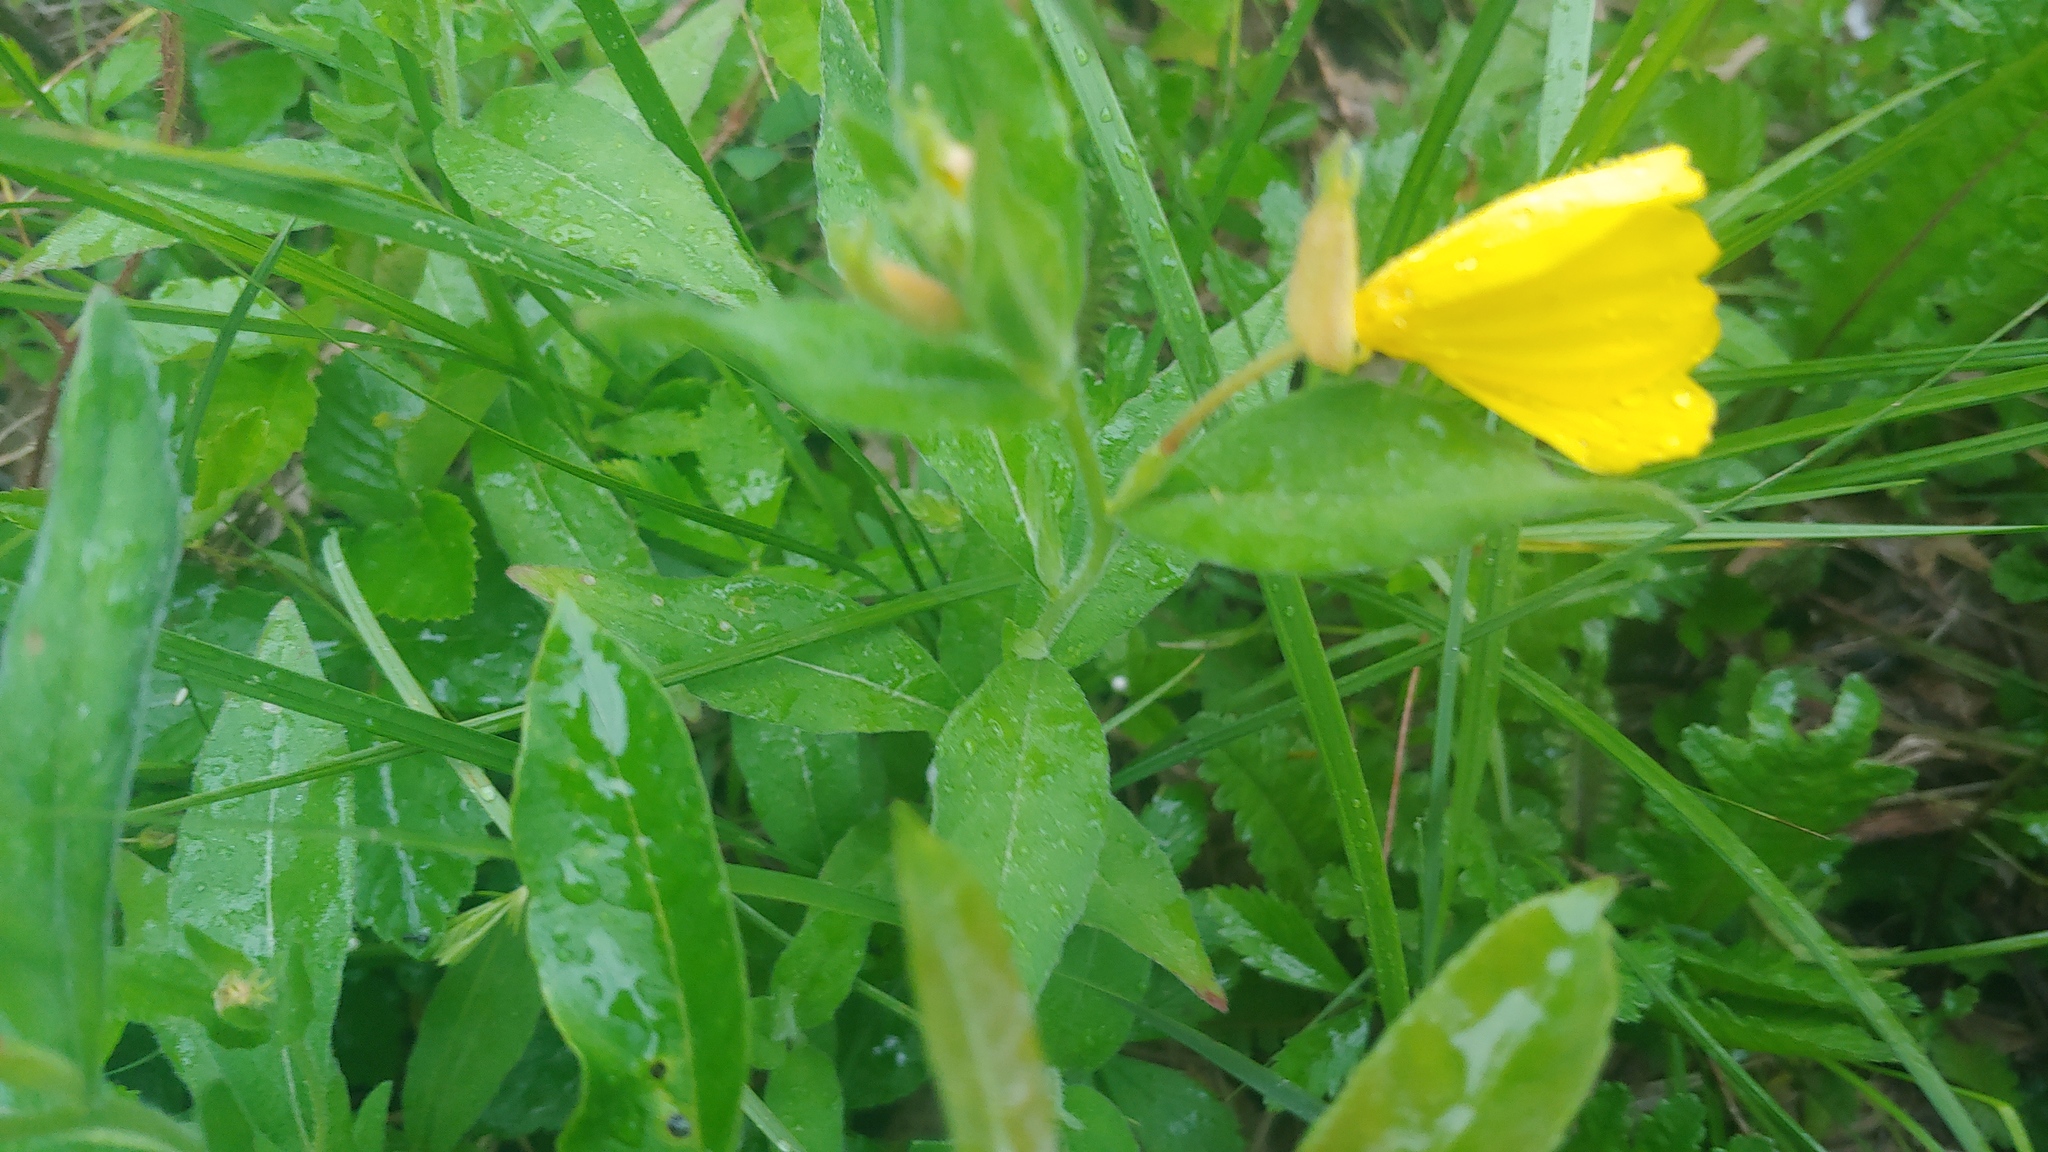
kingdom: Plantae
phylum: Tracheophyta
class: Magnoliopsida
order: Myrtales
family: Onagraceae
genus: Oenothera
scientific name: Oenothera pilosella
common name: Finely-pilose evening-primrose
